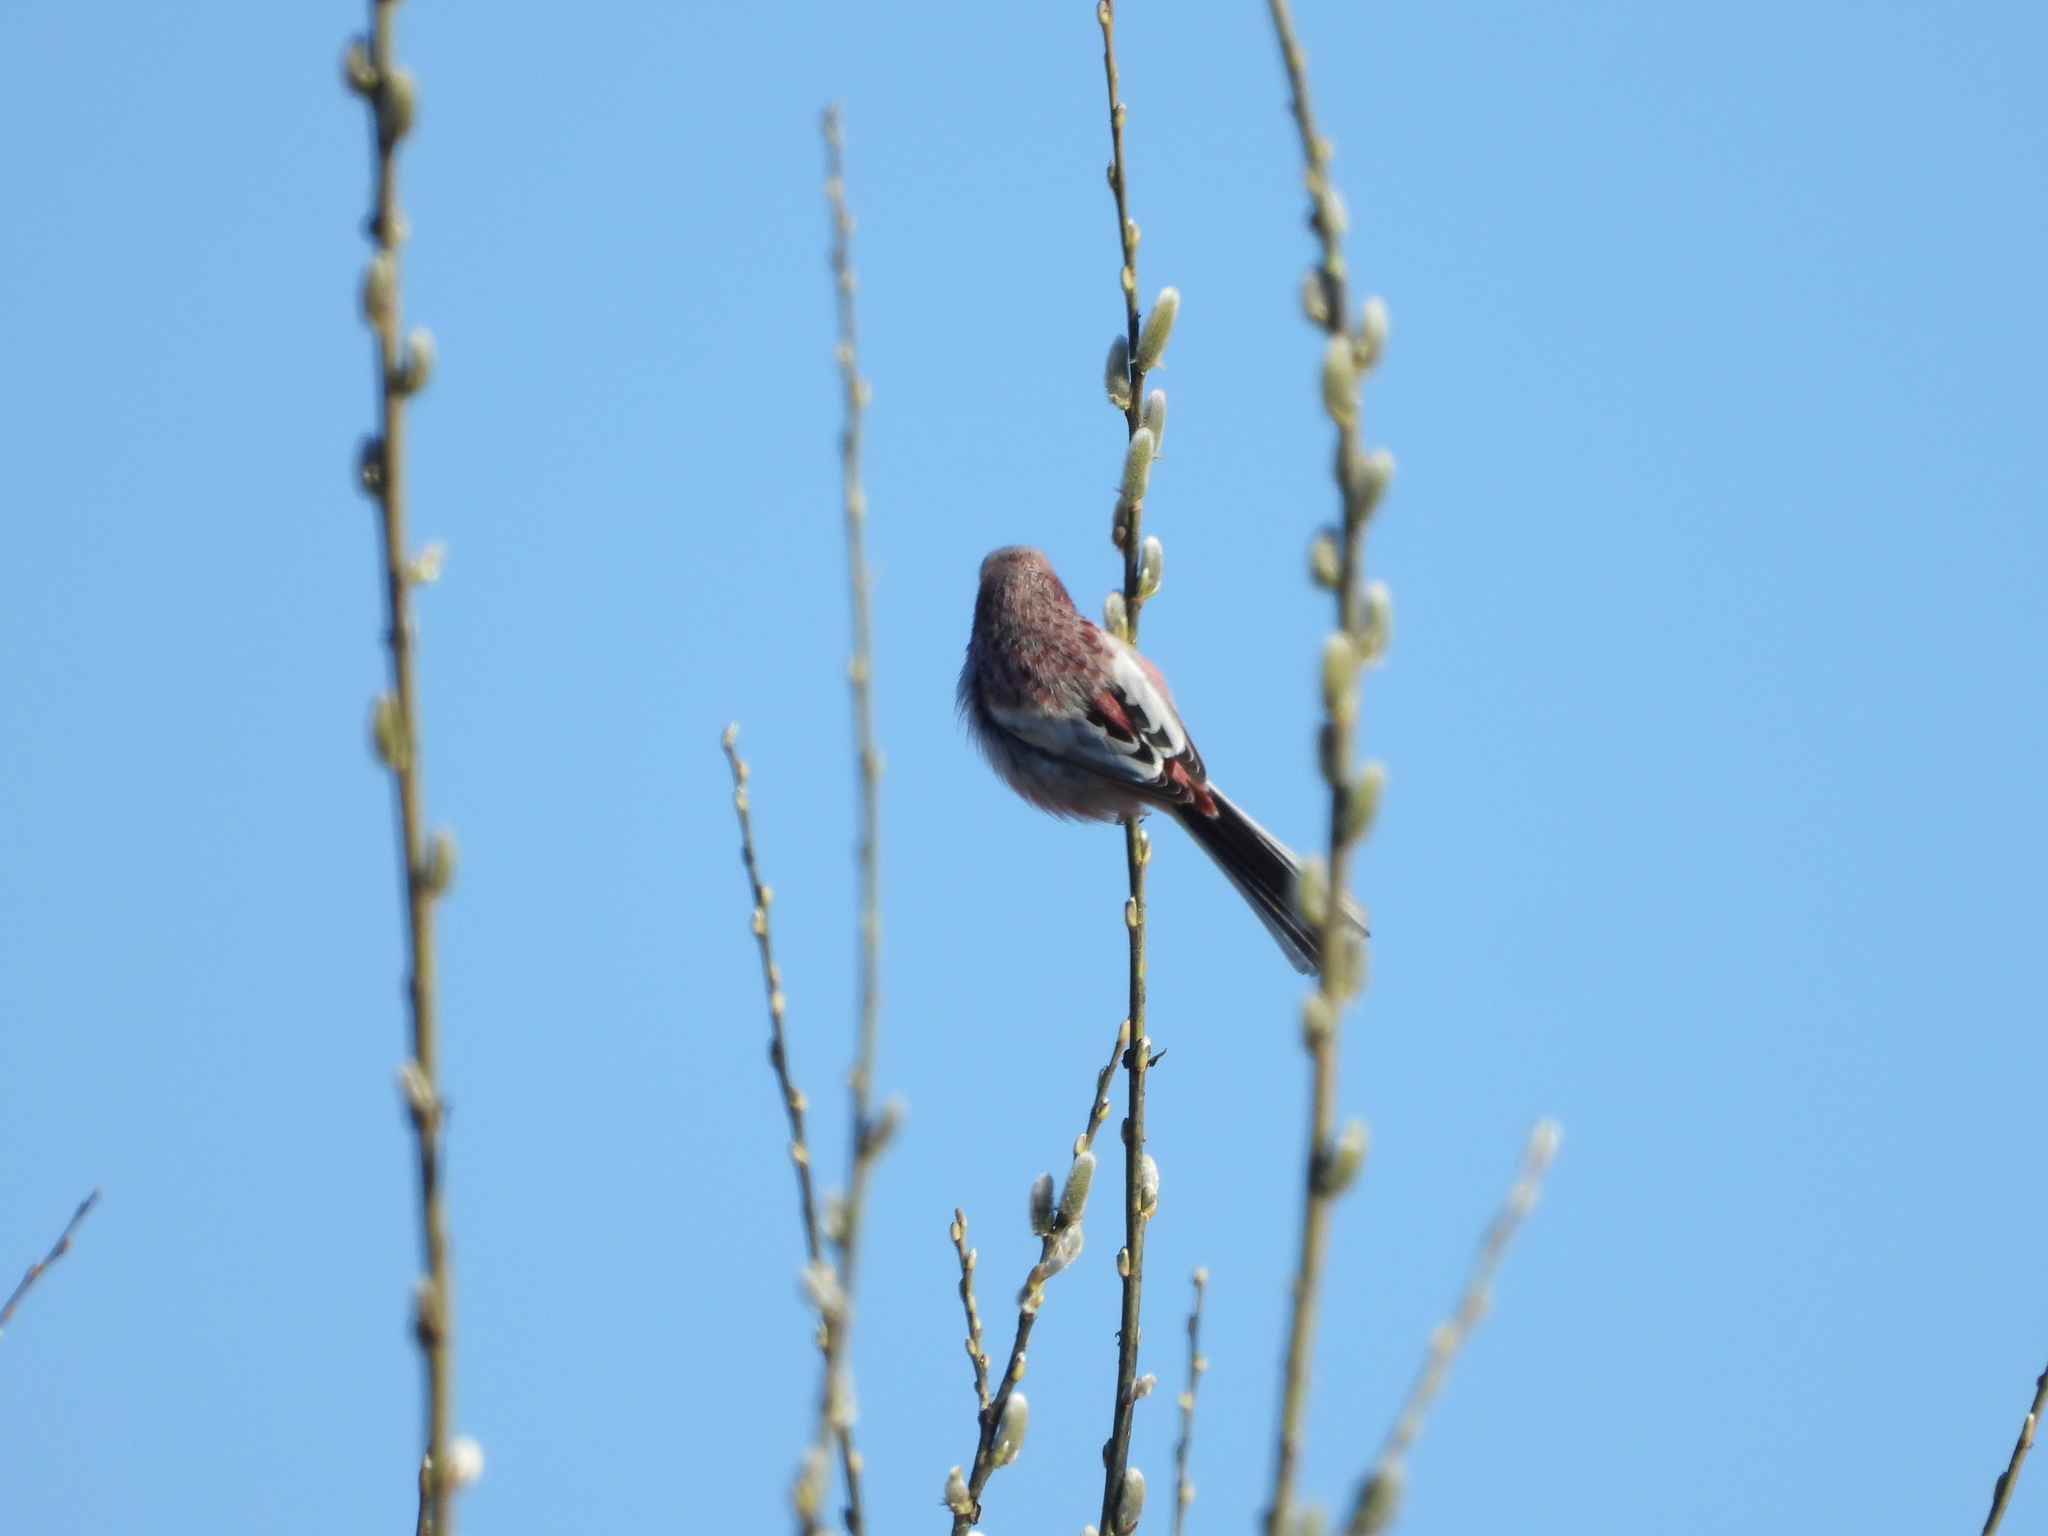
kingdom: Animalia
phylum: Chordata
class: Aves
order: Passeriformes
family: Fringillidae
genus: Carpodacus
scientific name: Carpodacus sibiricus
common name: Long-tailed rosefinch
